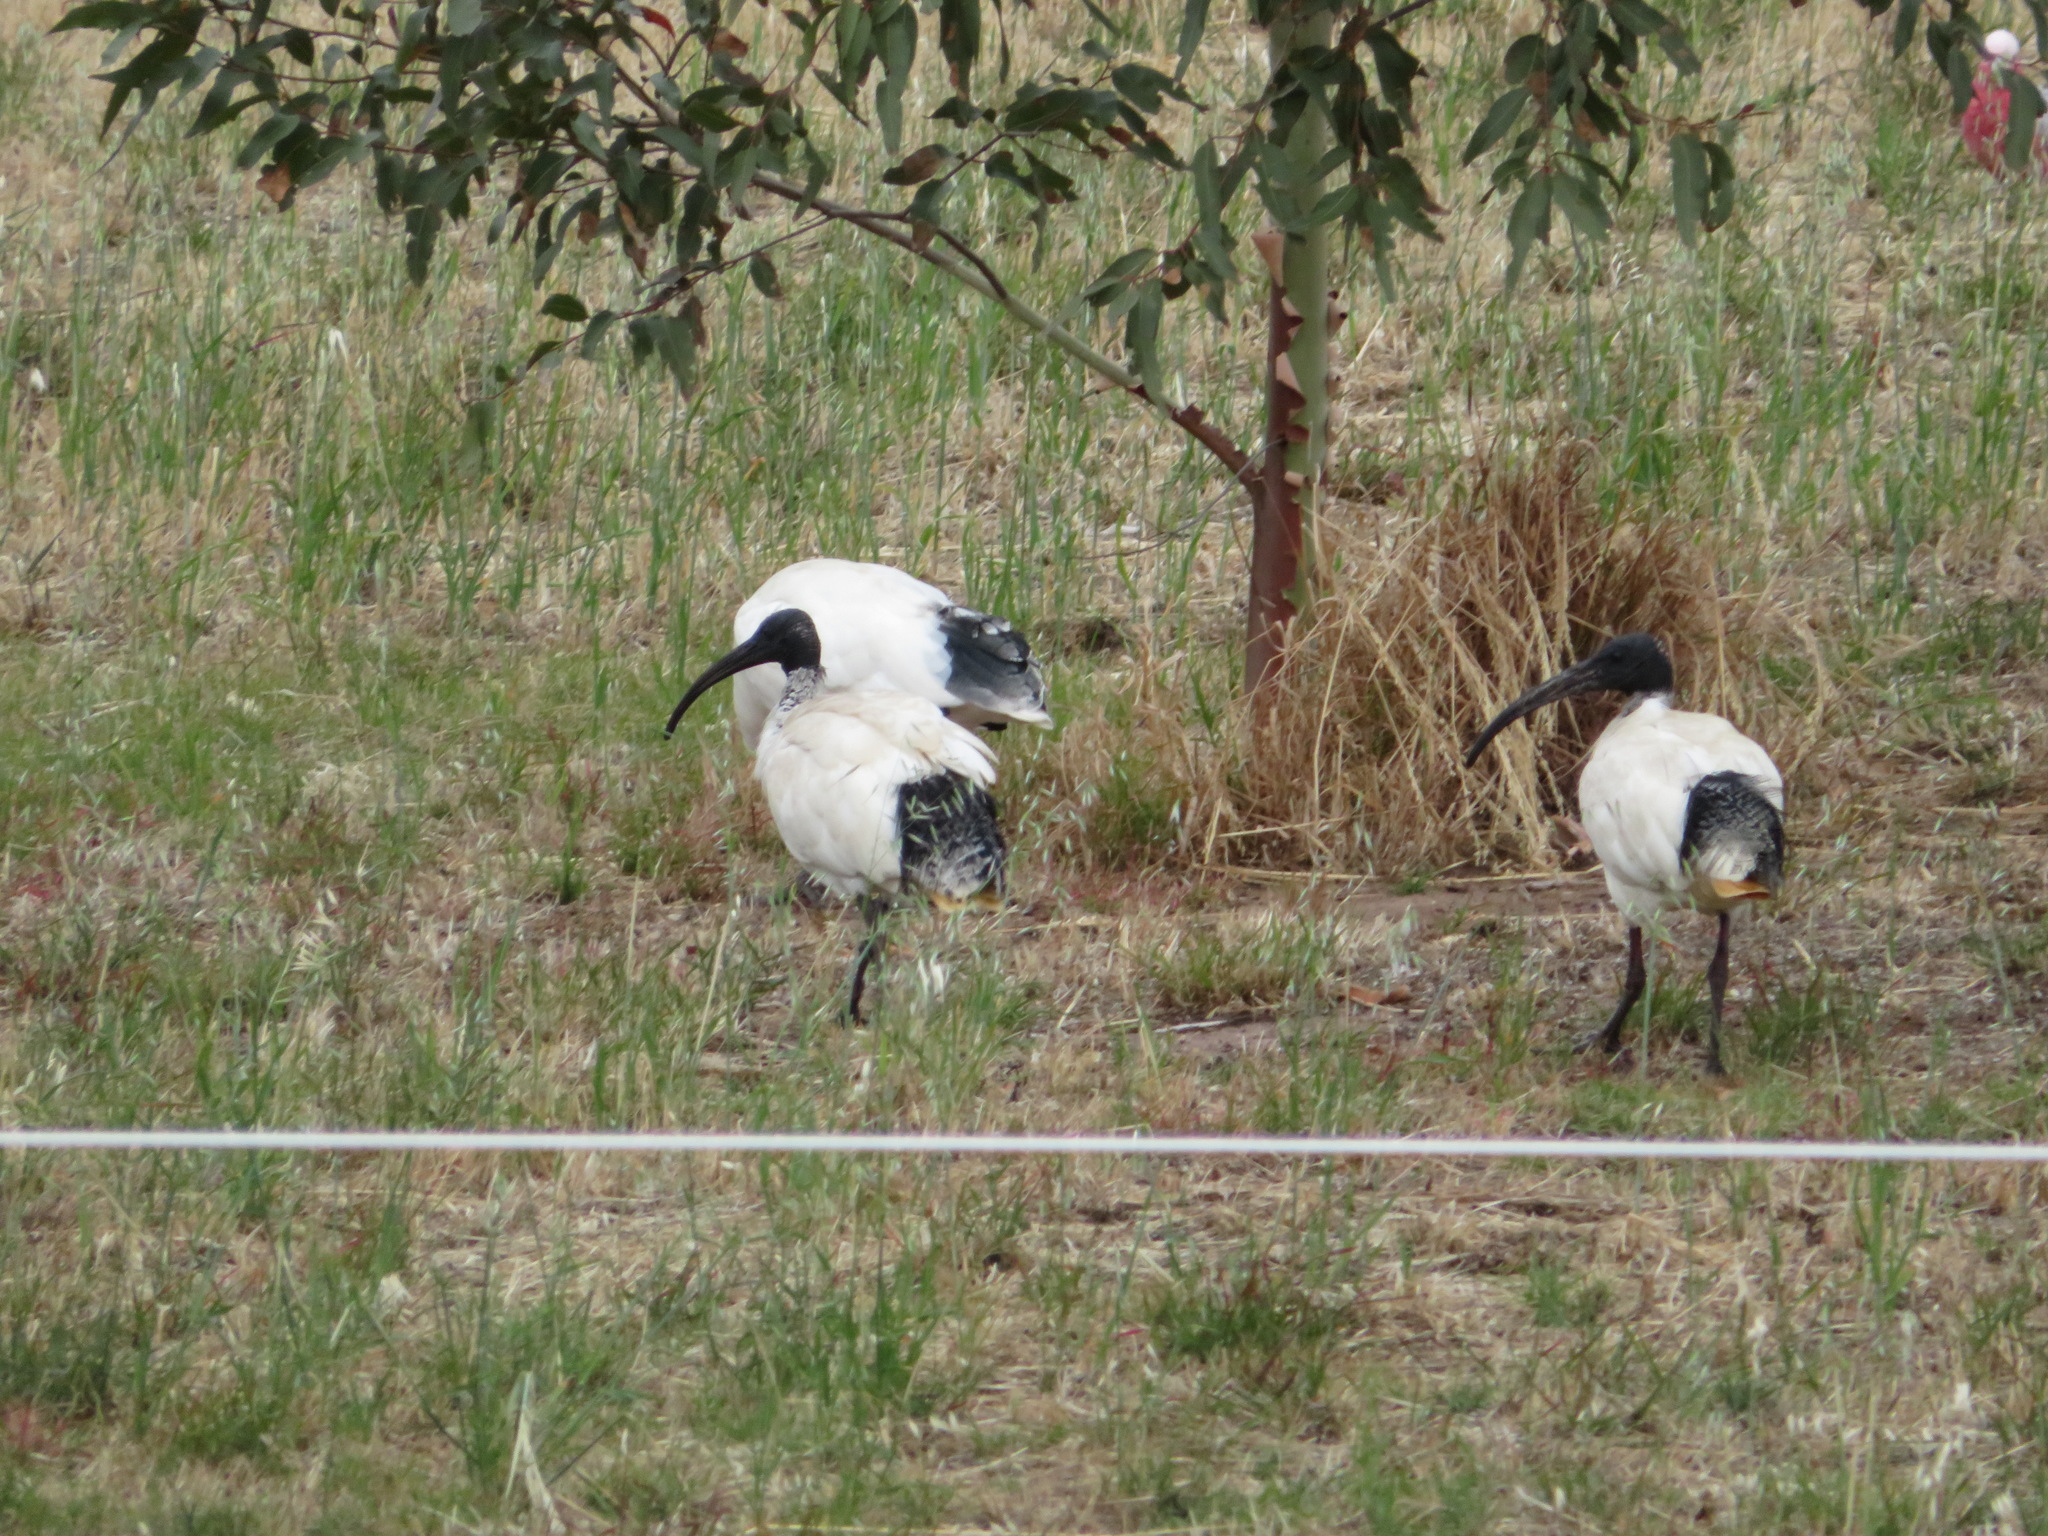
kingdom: Animalia
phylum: Chordata
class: Aves
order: Pelecaniformes
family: Threskiornithidae
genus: Threskiornis
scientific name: Threskiornis molucca
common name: Australian white ibis
